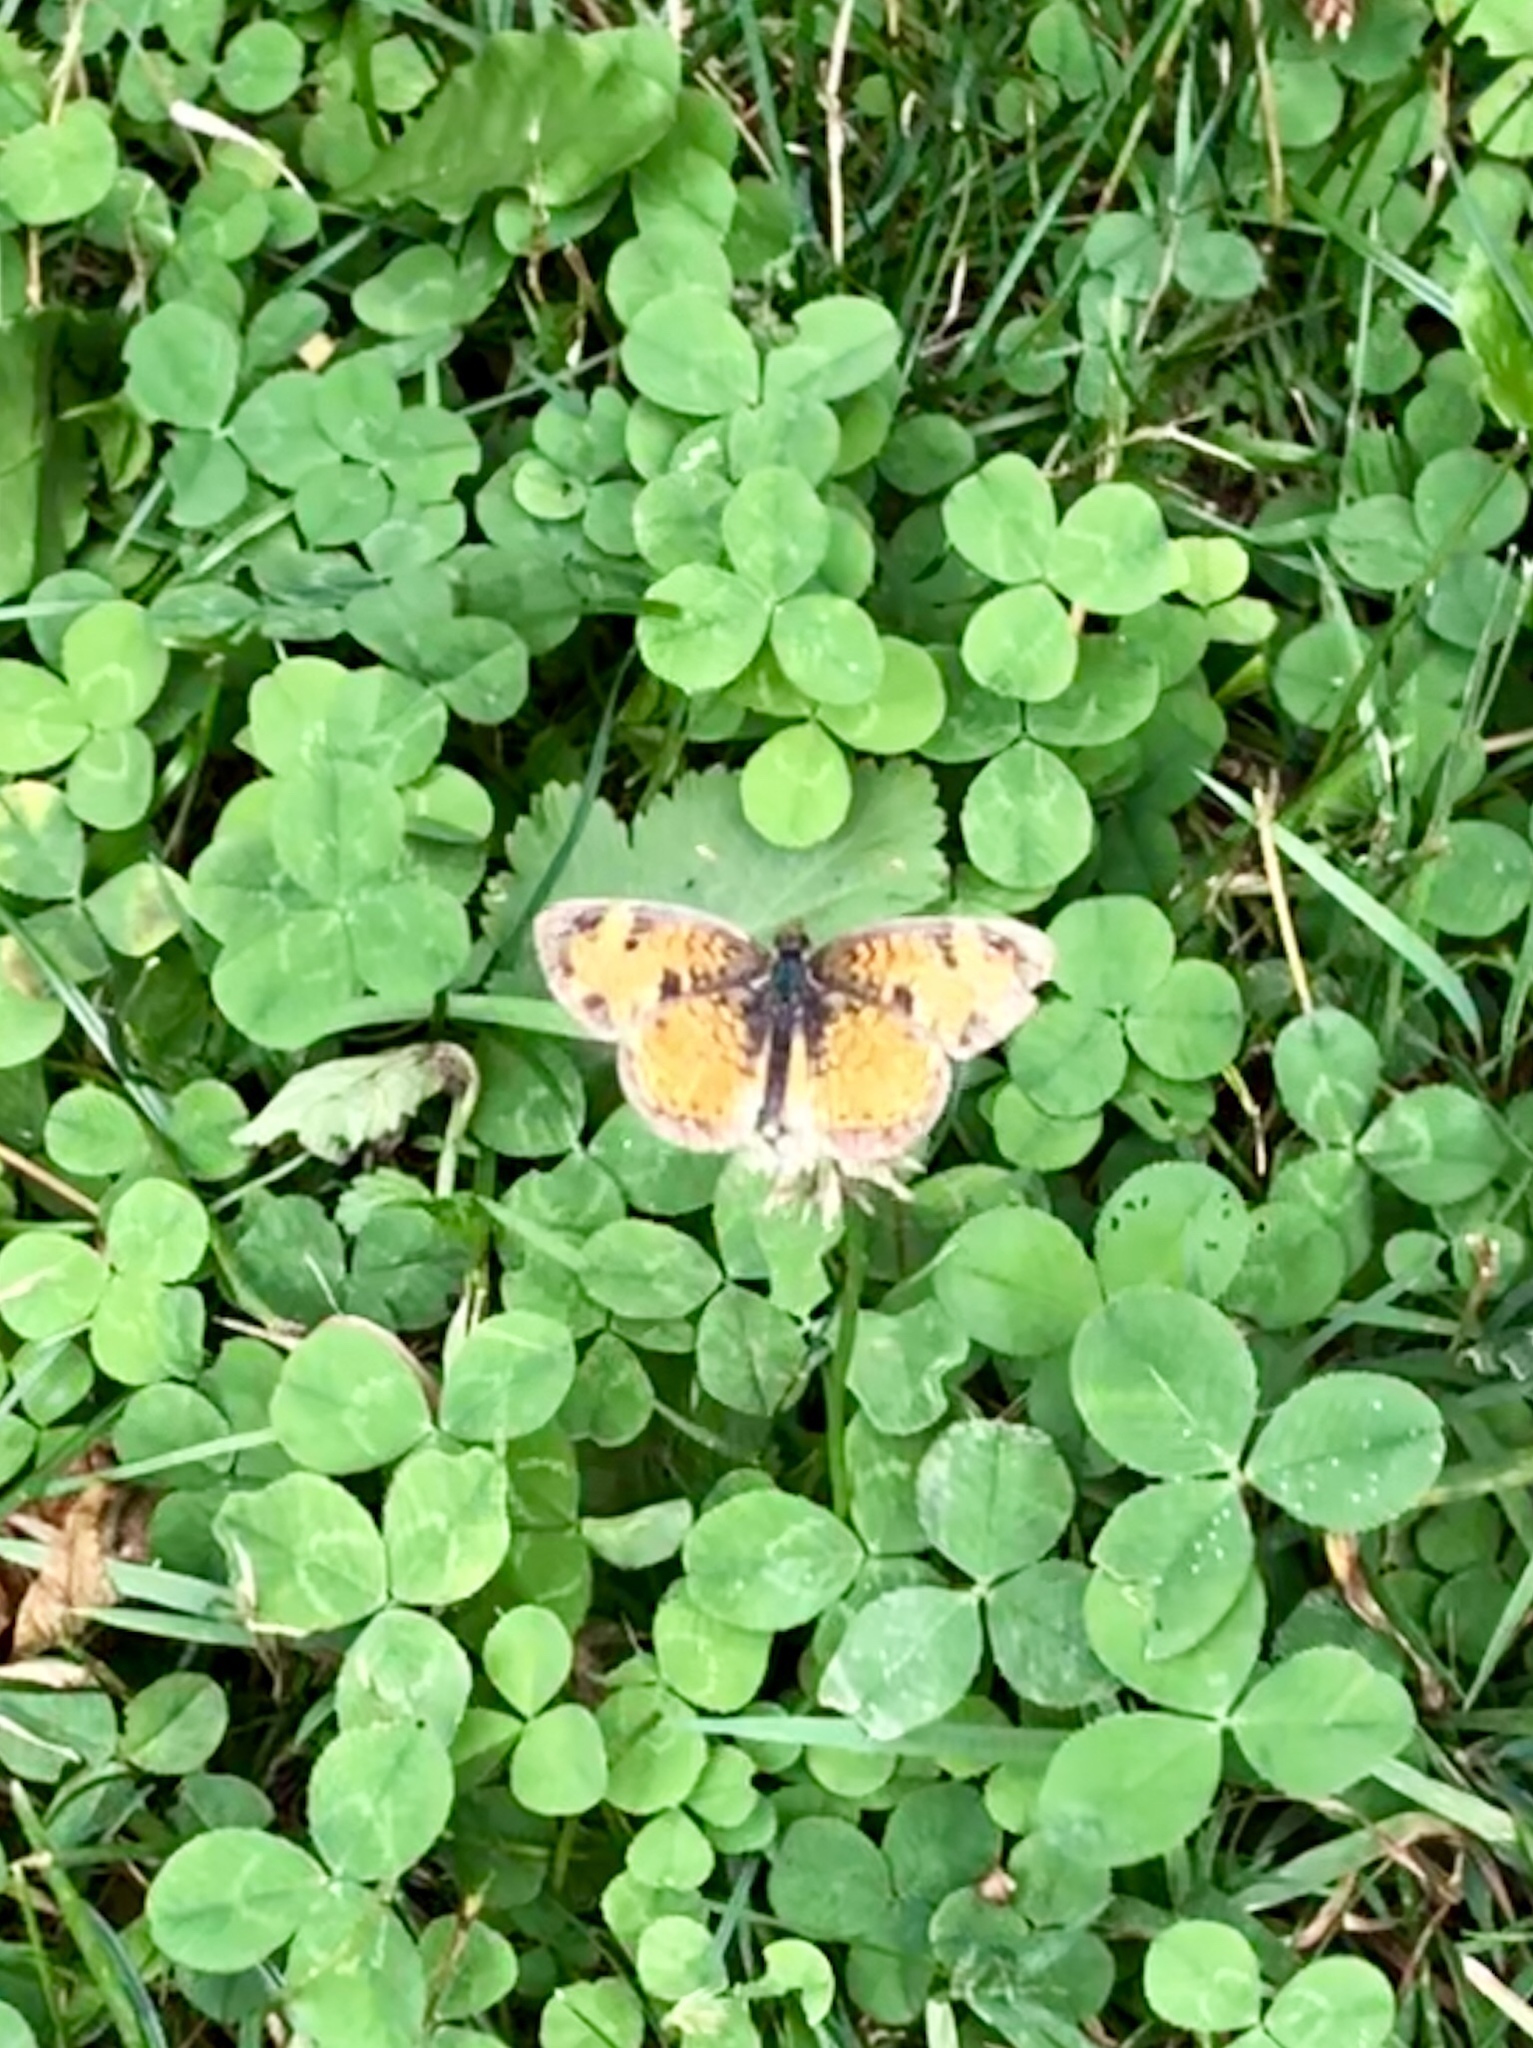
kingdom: Animalia
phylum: Arthropoda
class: Insecta
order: Lepidoptera
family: Nymphalidae
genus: Phyciodes
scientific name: Phyciodes tharos
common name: Pearl crescent
